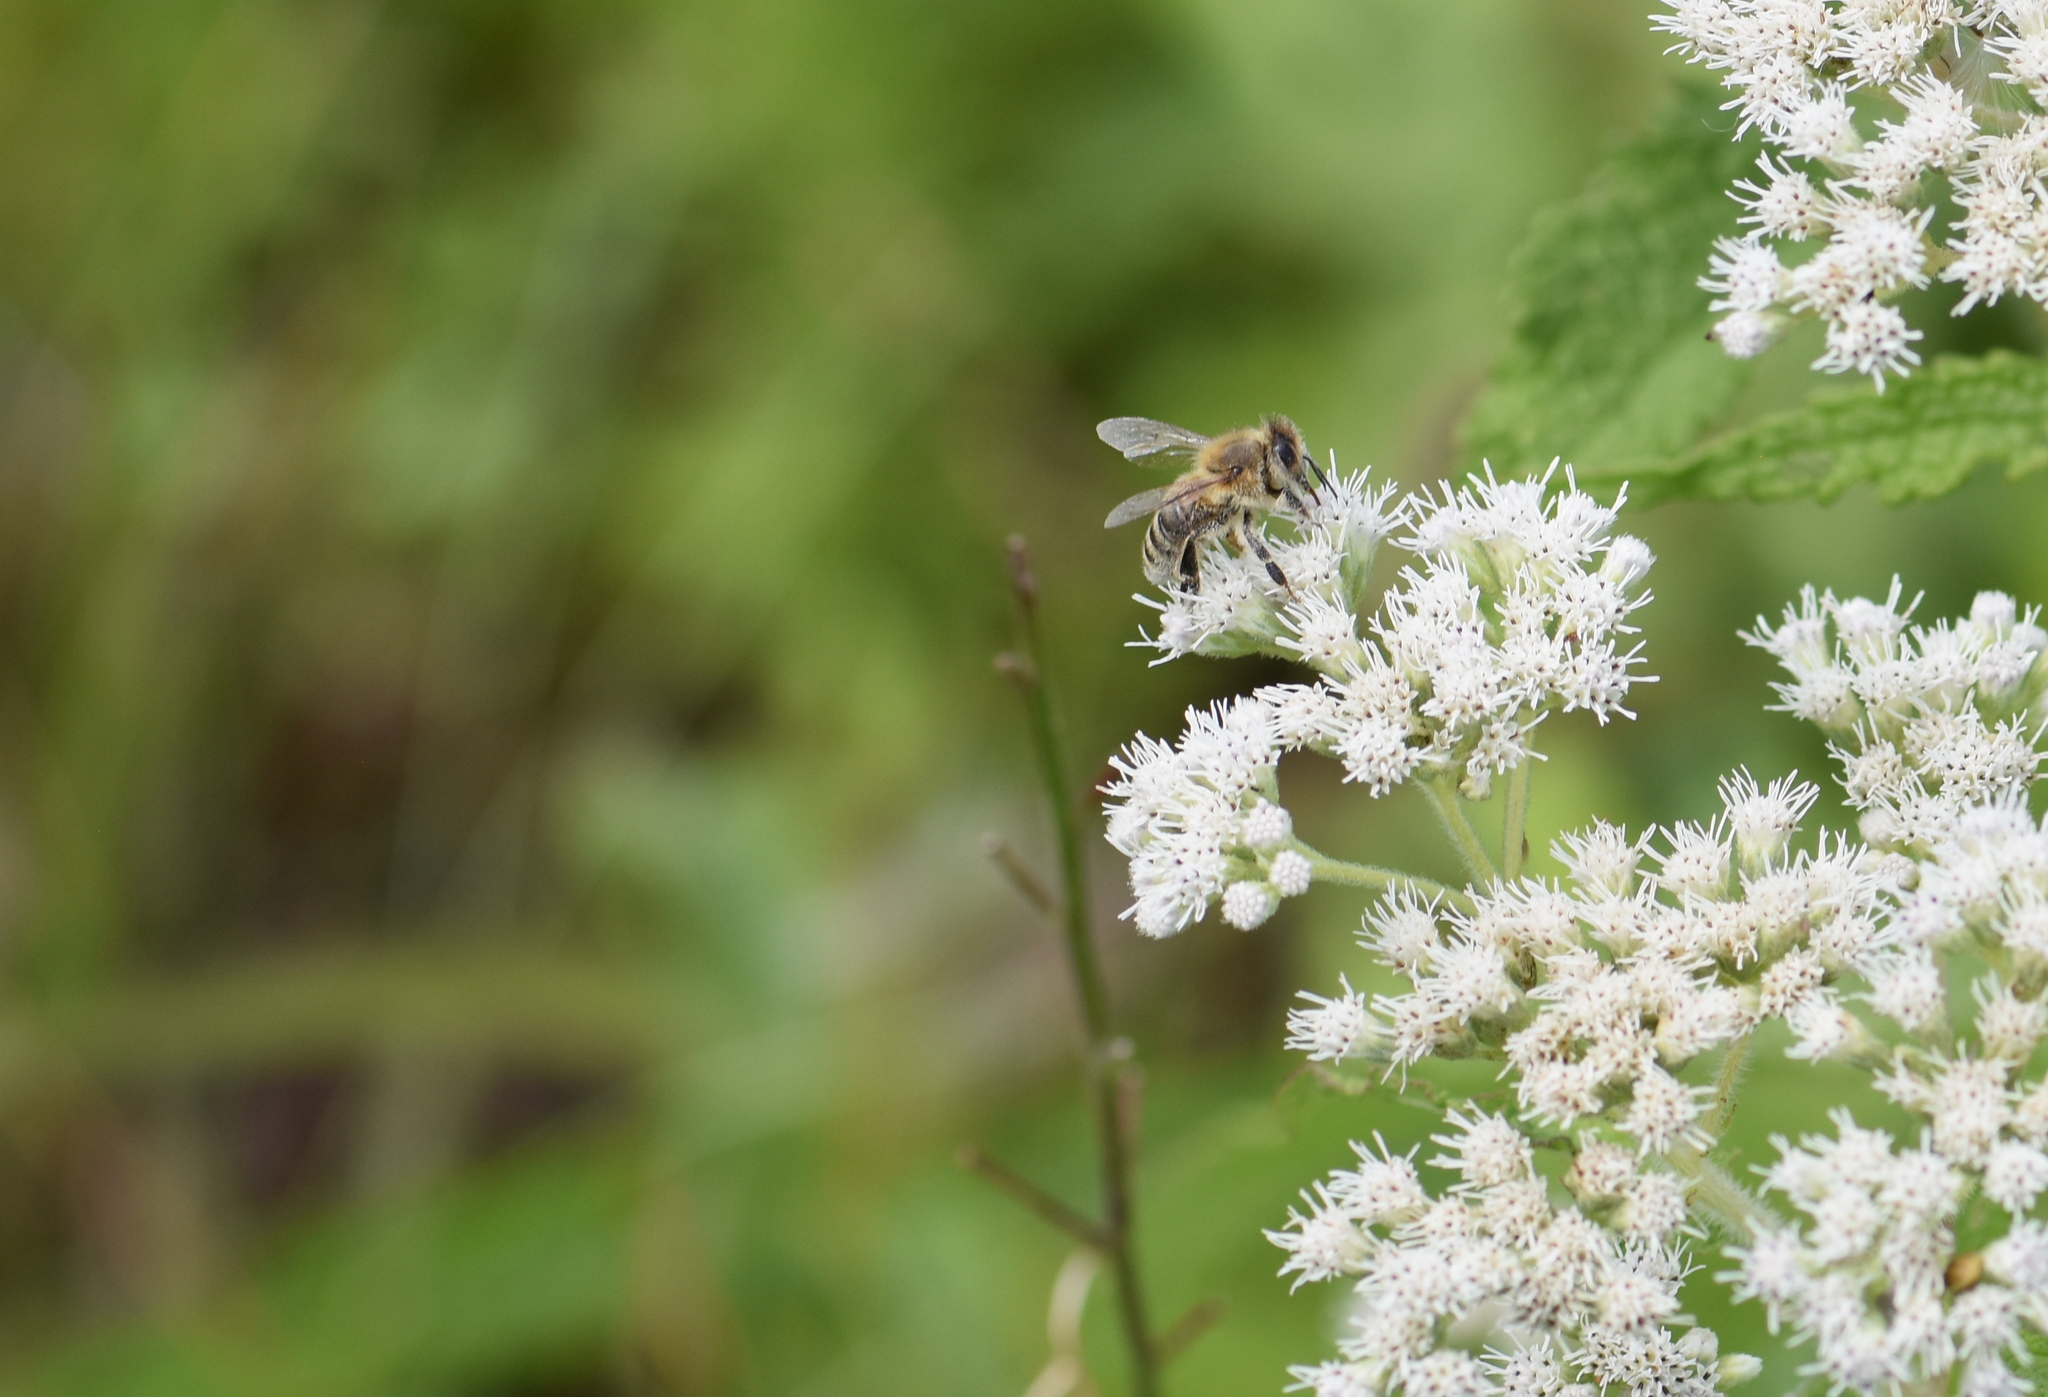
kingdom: Animalia
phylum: Arthropoda
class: Insecta
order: Hymenoptera
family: Apidae
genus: Apis
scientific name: Apis mellifera
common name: Honey bee
